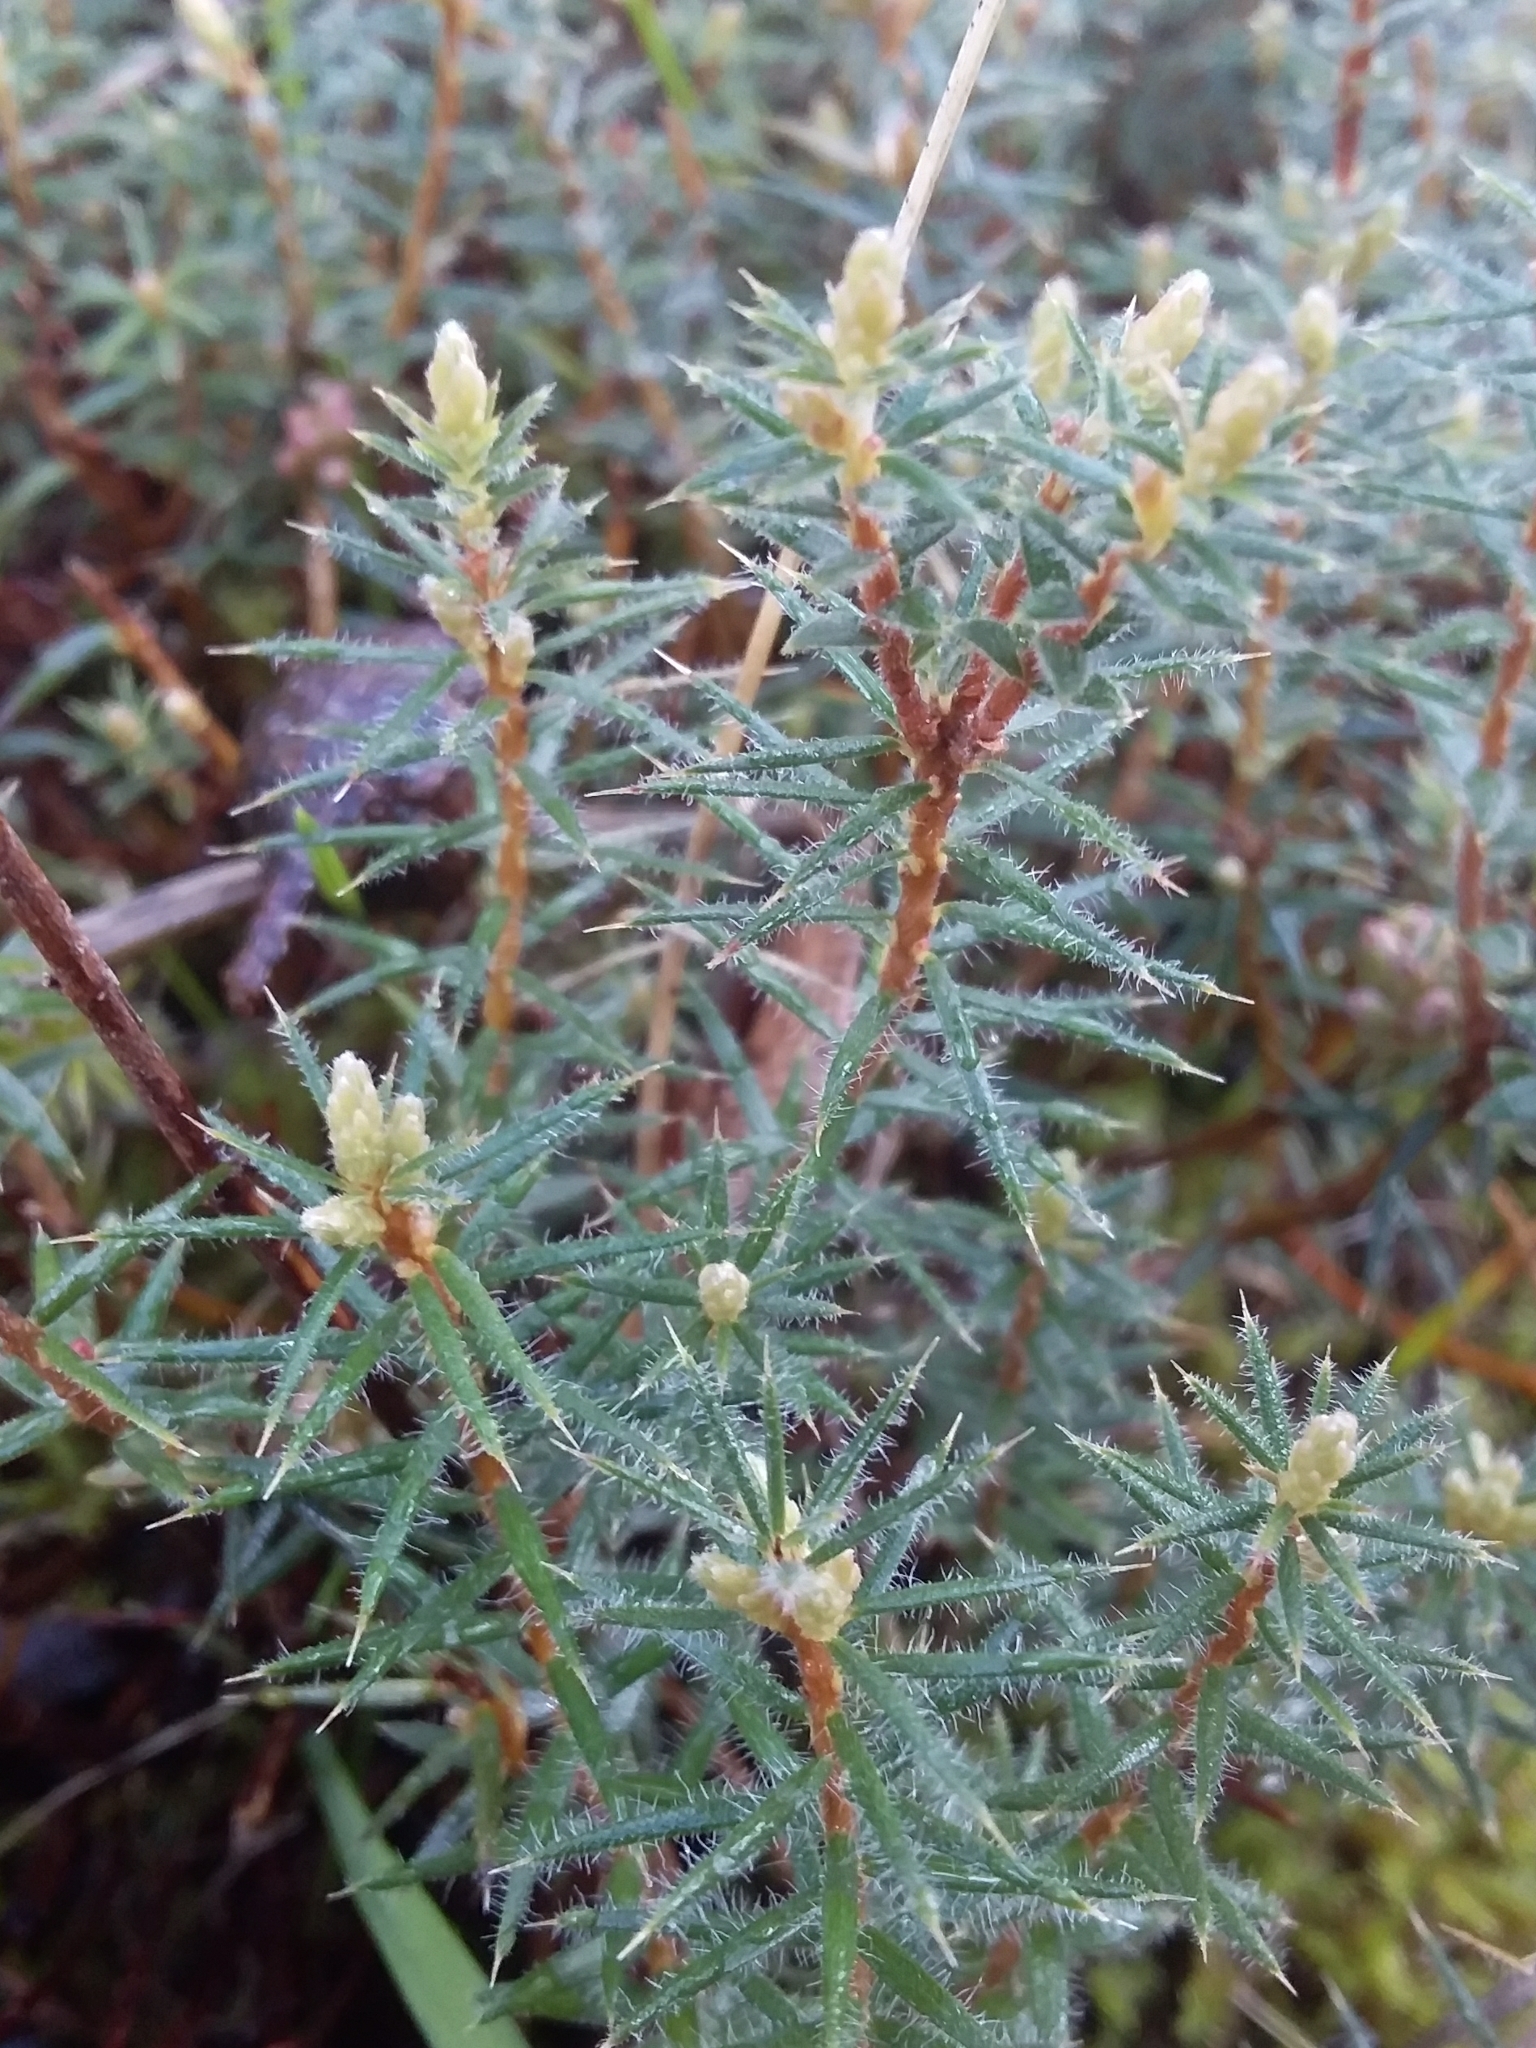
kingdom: Plantae
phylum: Tracheophyta
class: Magnoliopsida
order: Ericales
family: Ericaceae
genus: Acrotriche
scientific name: Acrotriche serrulata
